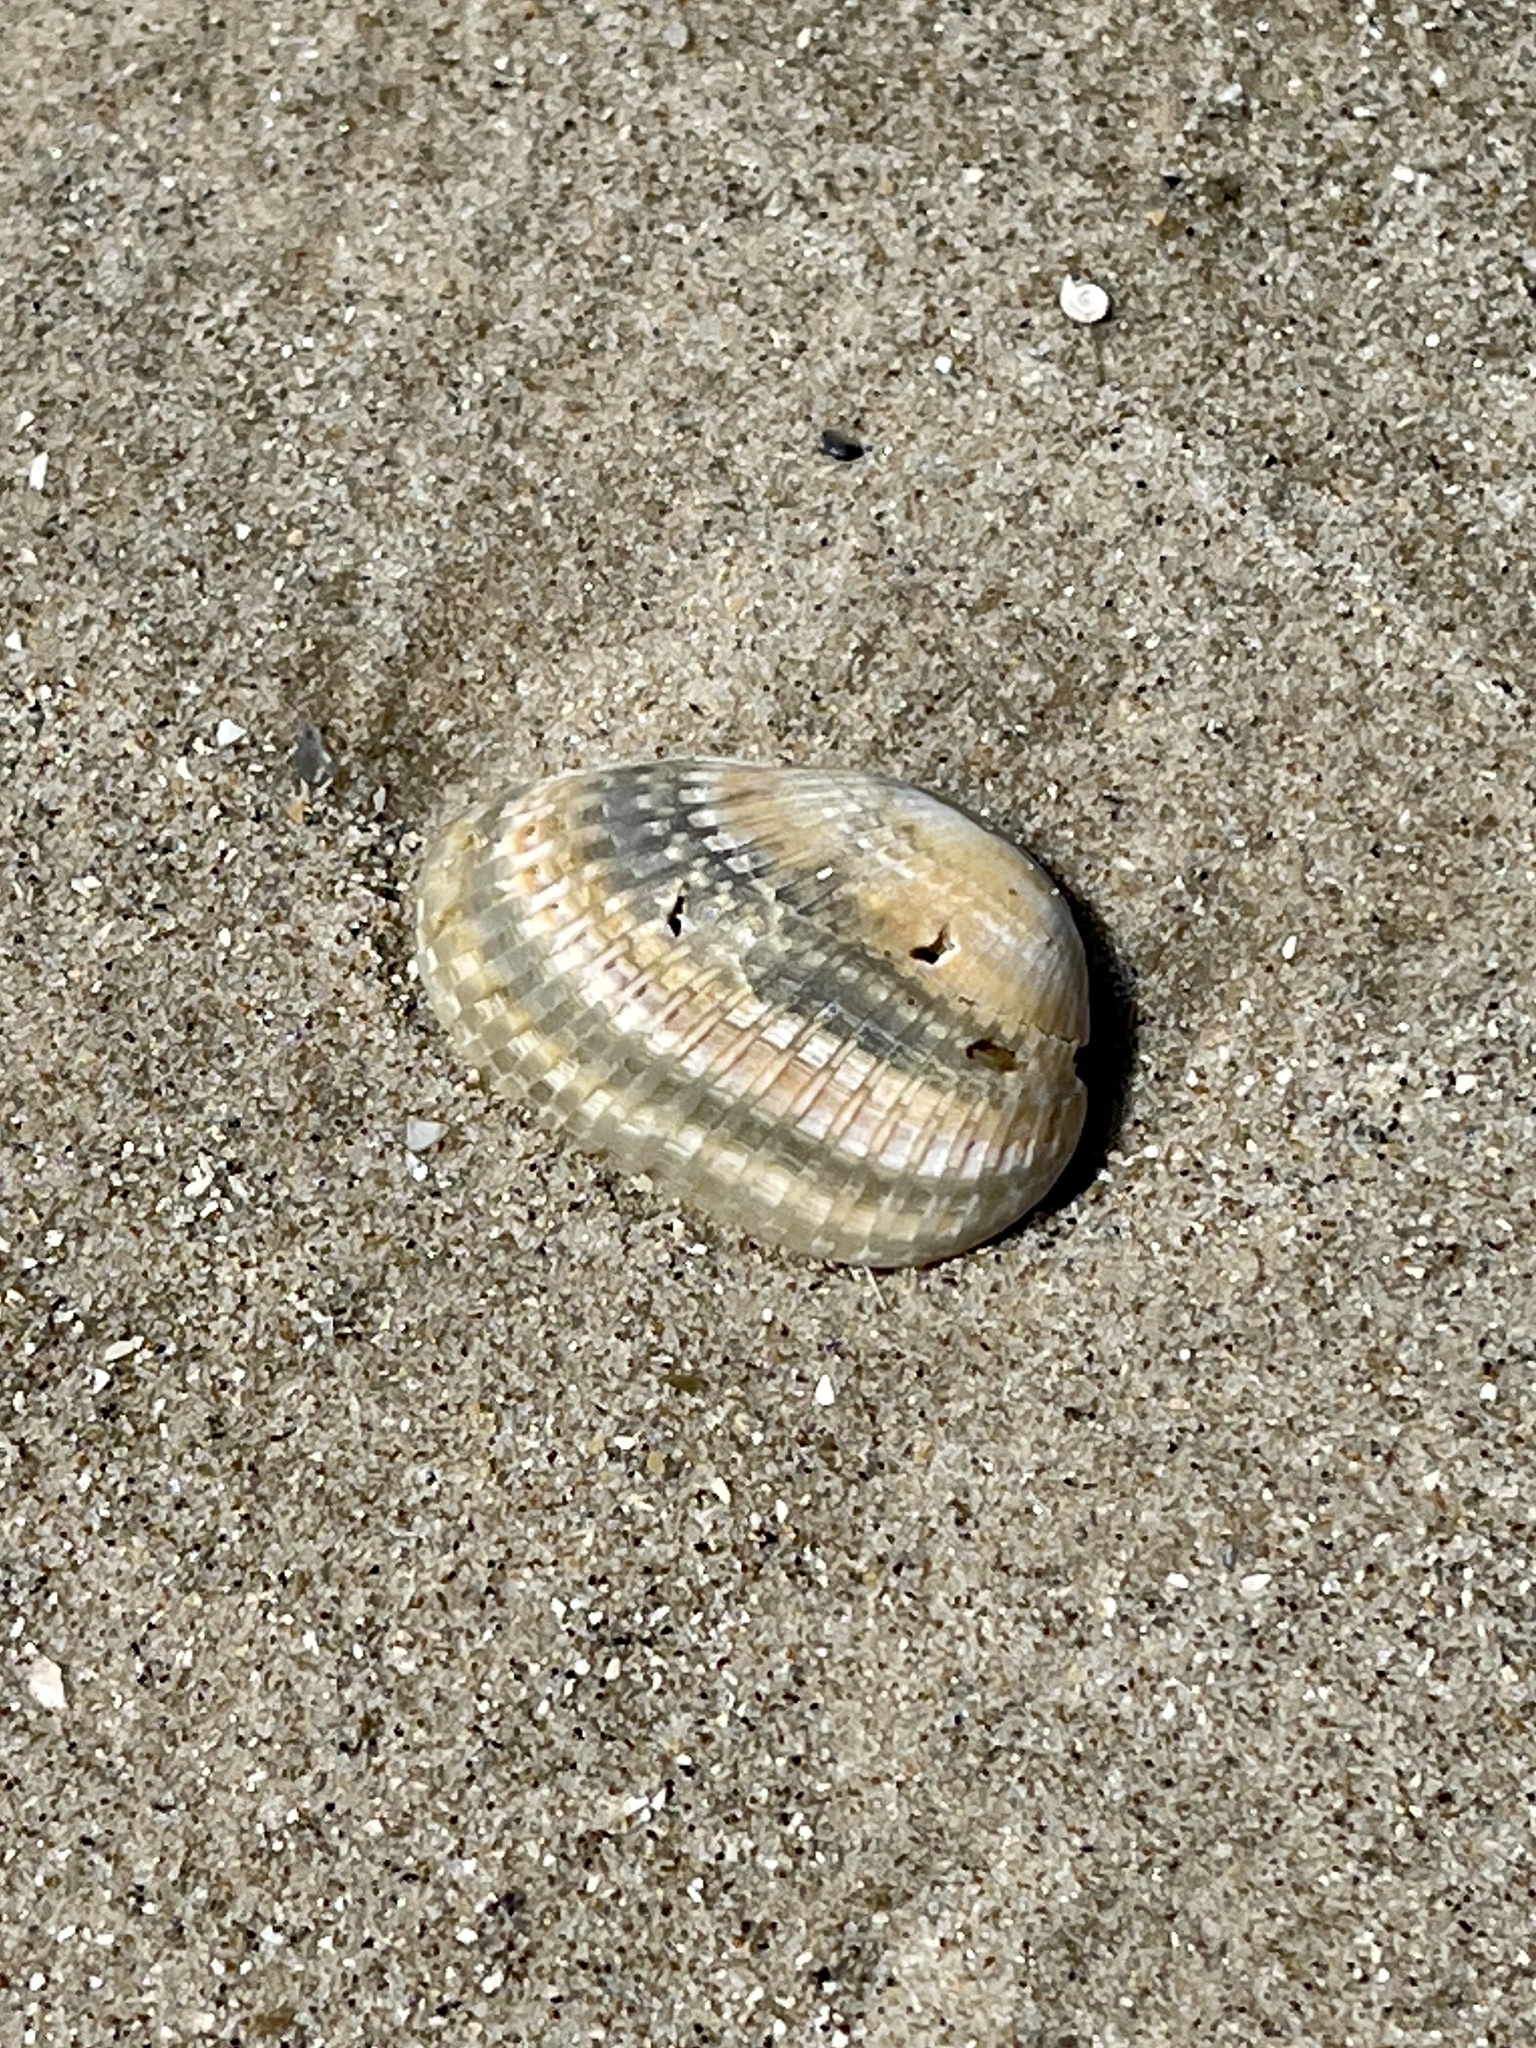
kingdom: Animalia
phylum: Mollusca
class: Bivalvia
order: Arcida
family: Arcidae
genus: Anadara
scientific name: Anadara transversa
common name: Transverse ark
